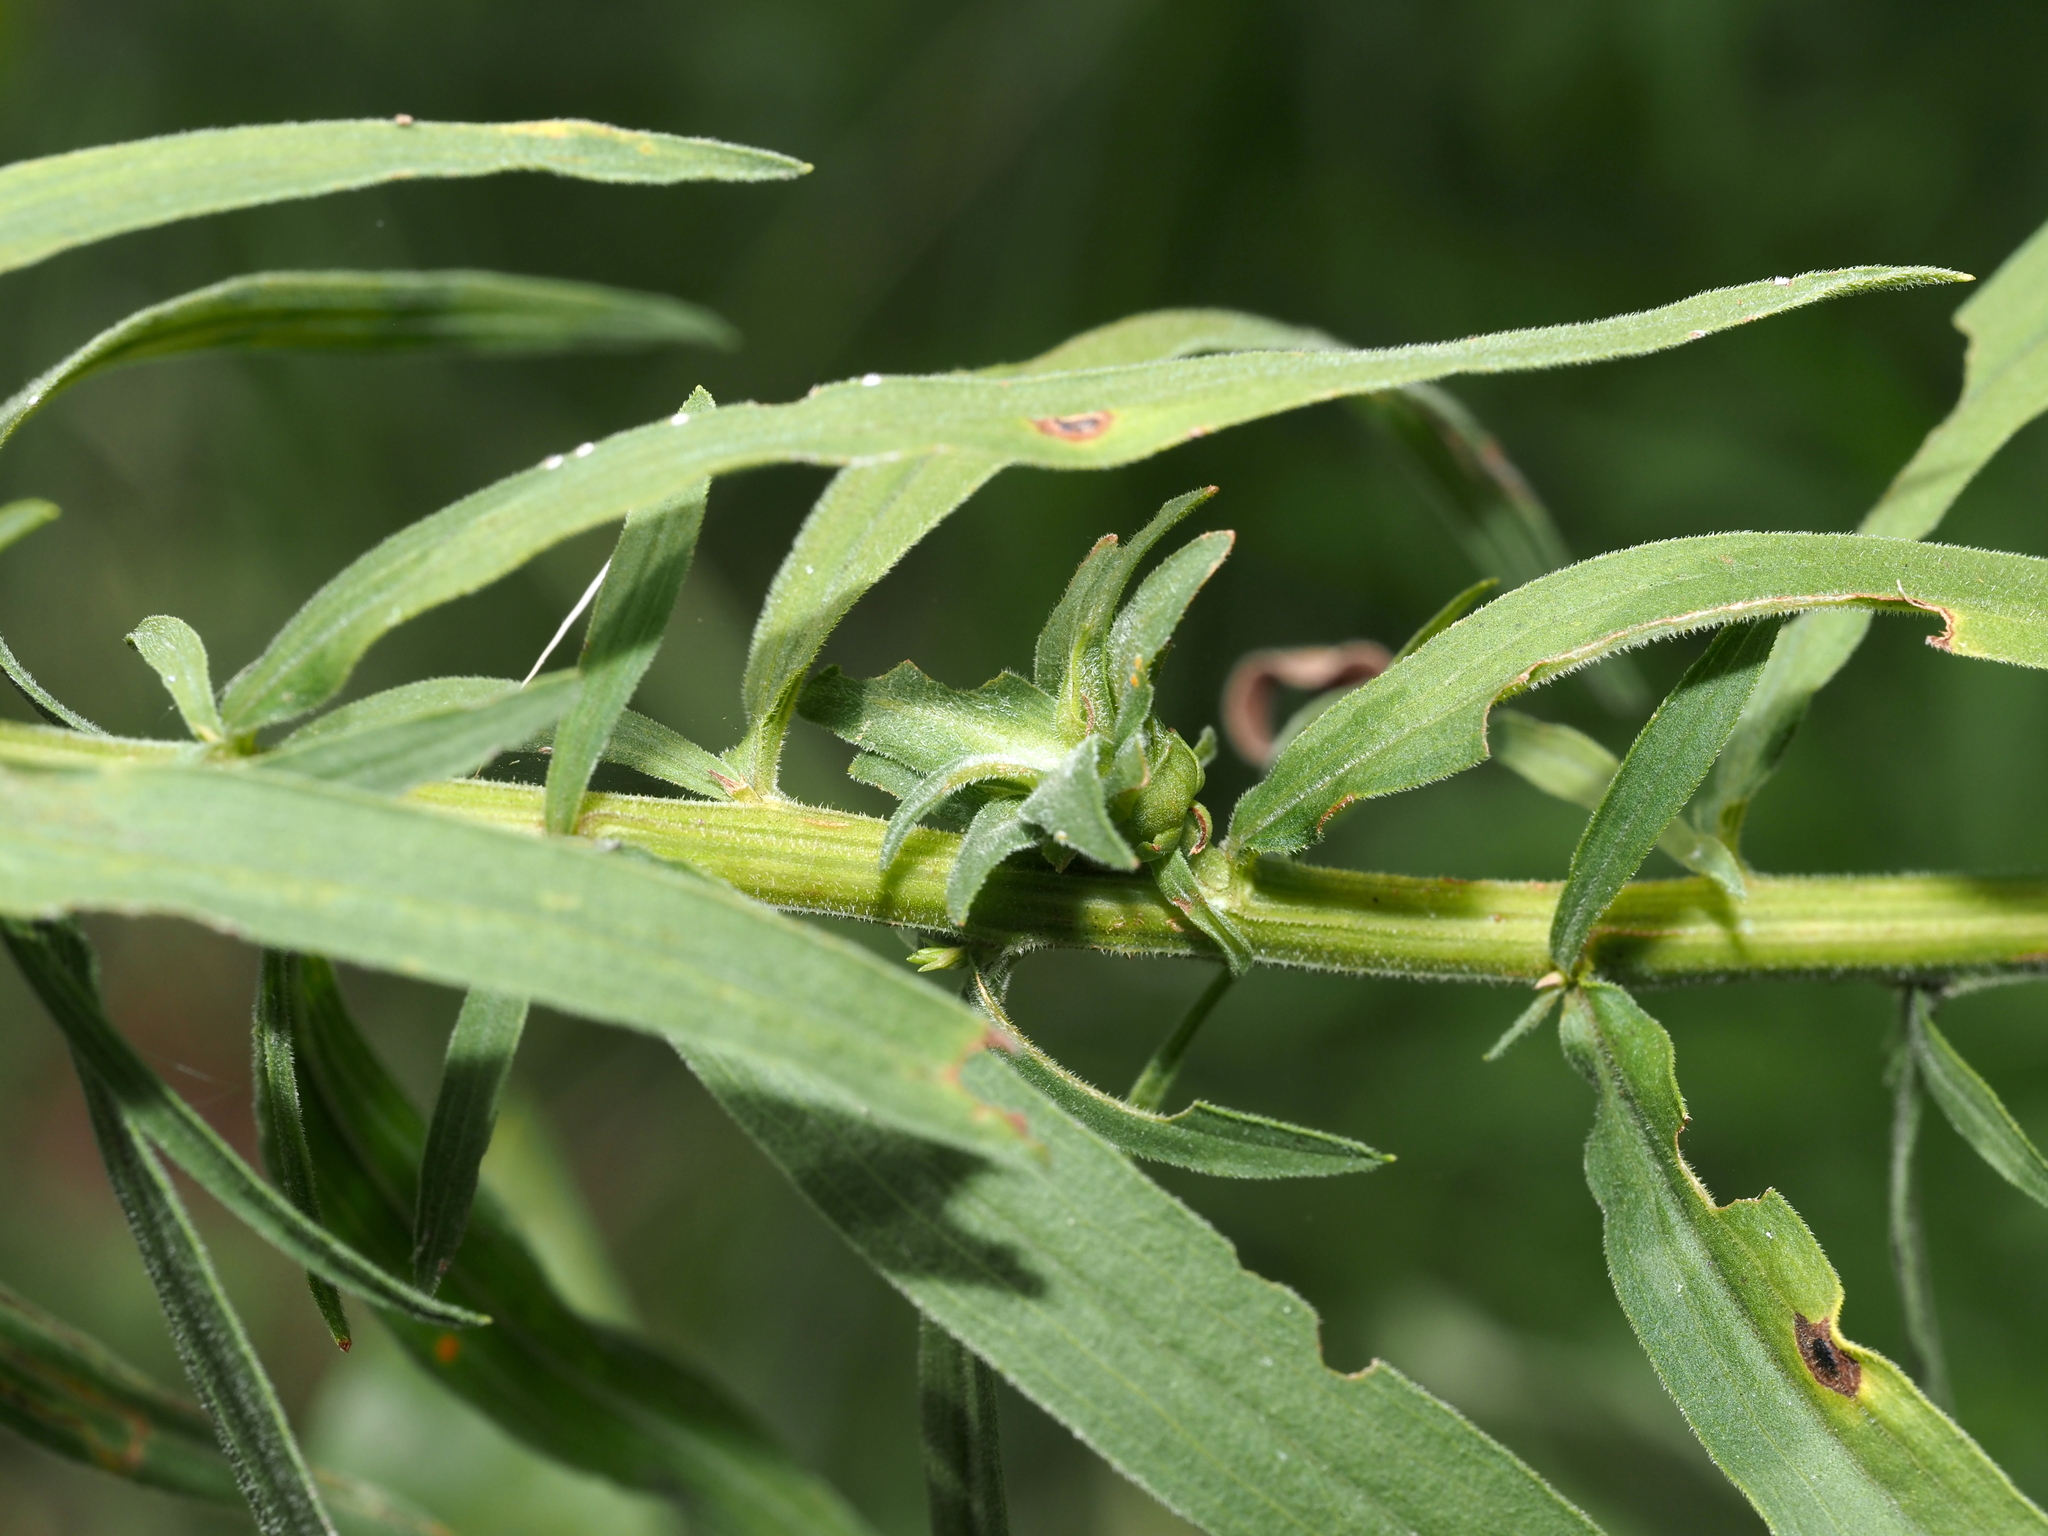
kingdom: Animalia
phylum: Arthropoda
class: Insecta
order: Diptera
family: Cecidomyiidae
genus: Asphondylia
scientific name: Asphondylia pseudorosa
